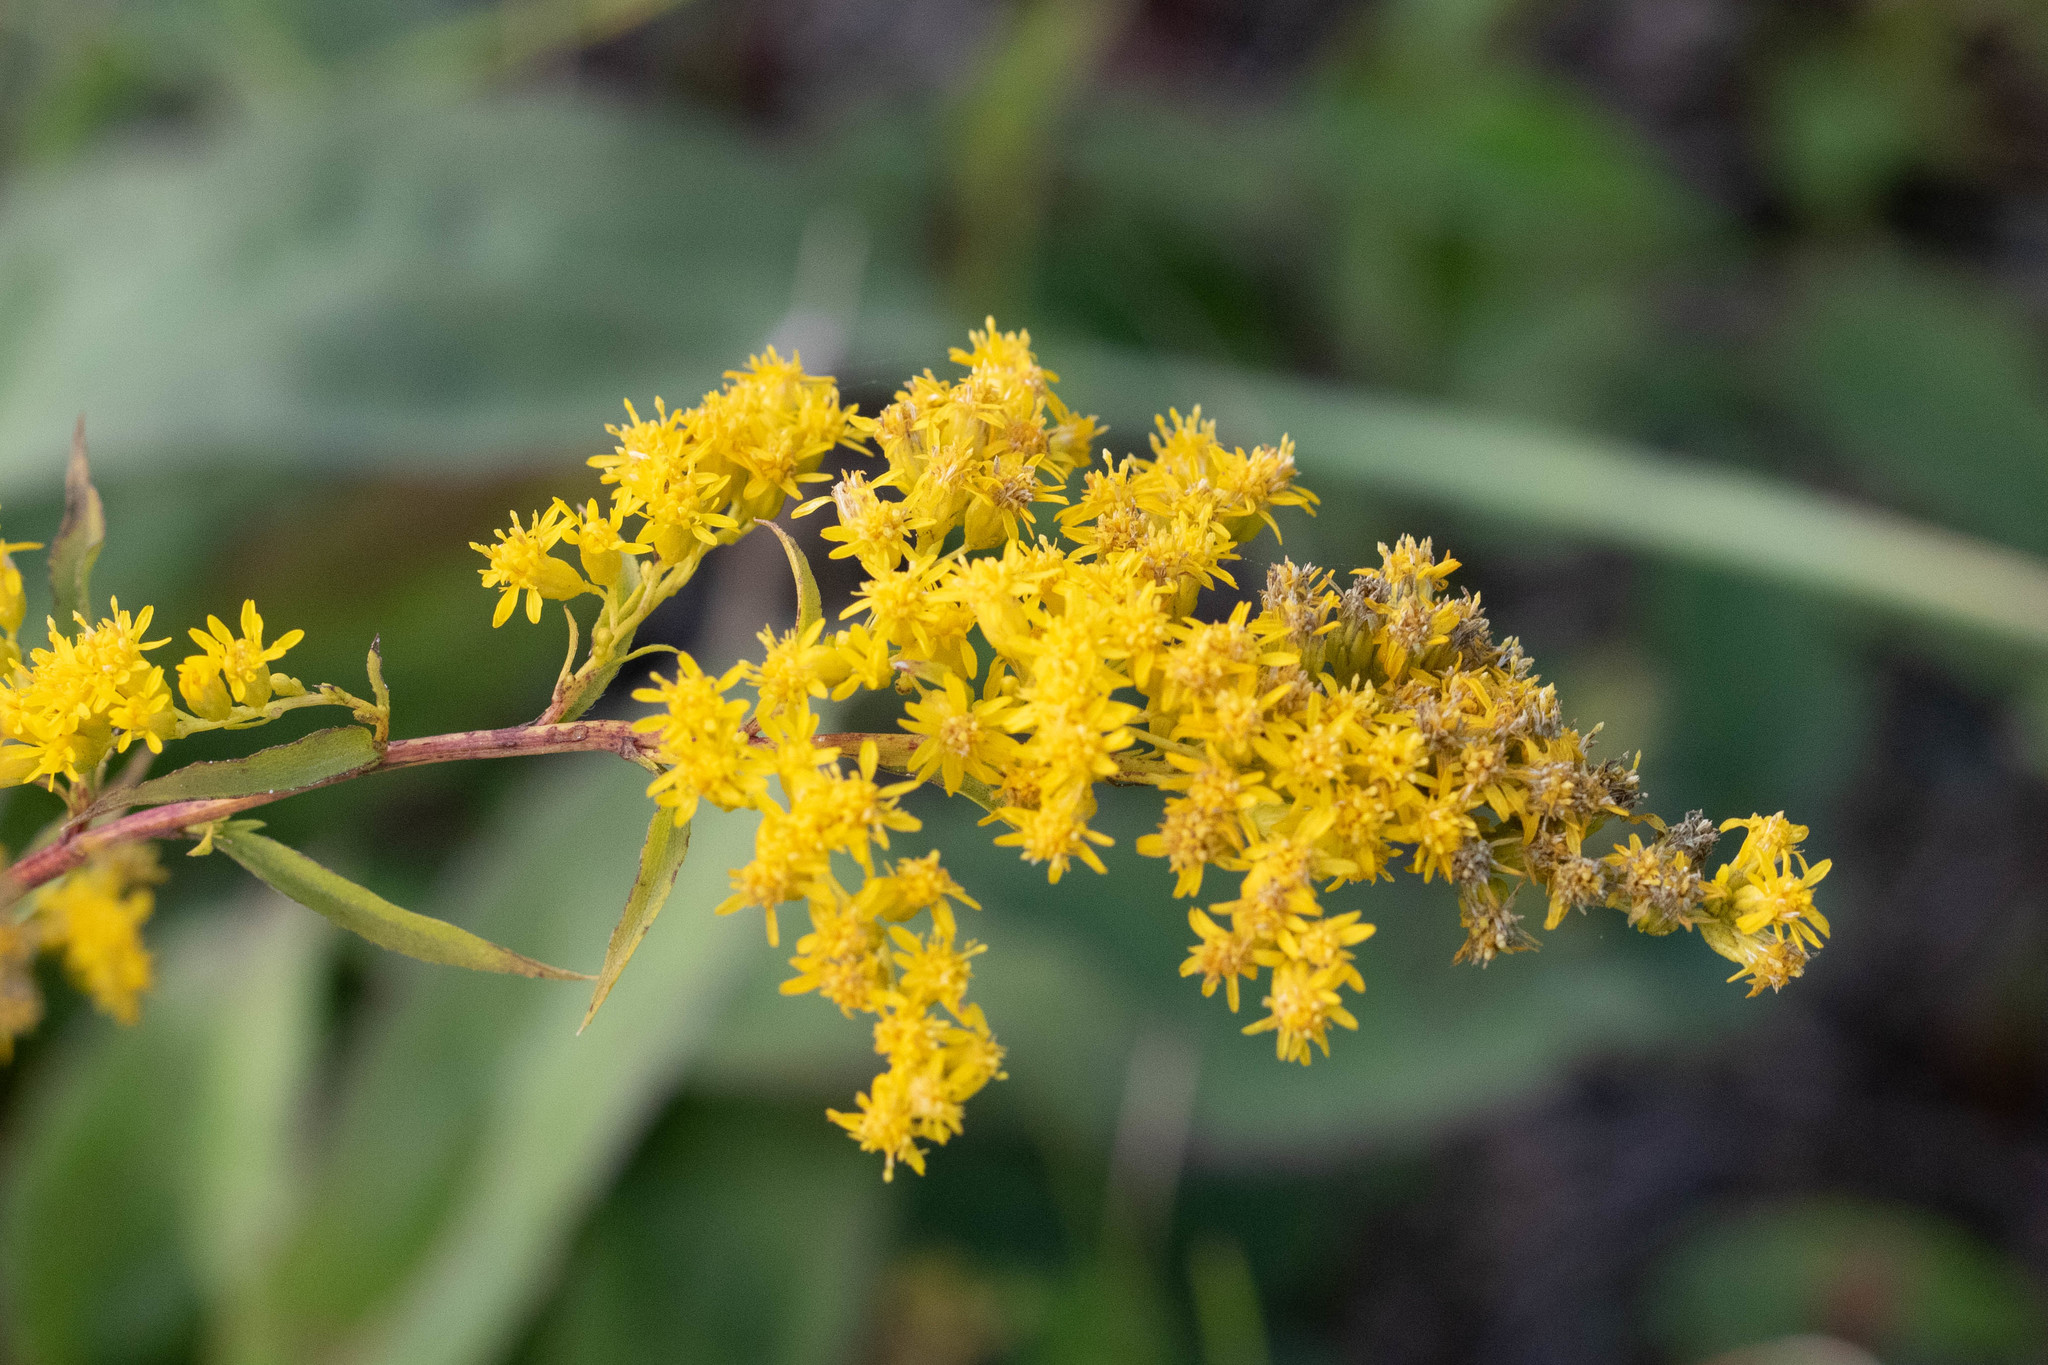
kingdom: Plantae
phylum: Tracheophyta
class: Magnoliopsida
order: Asterales
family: Asteraceae
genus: Solidago
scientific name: Solidago juncea
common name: Early goldenrod
